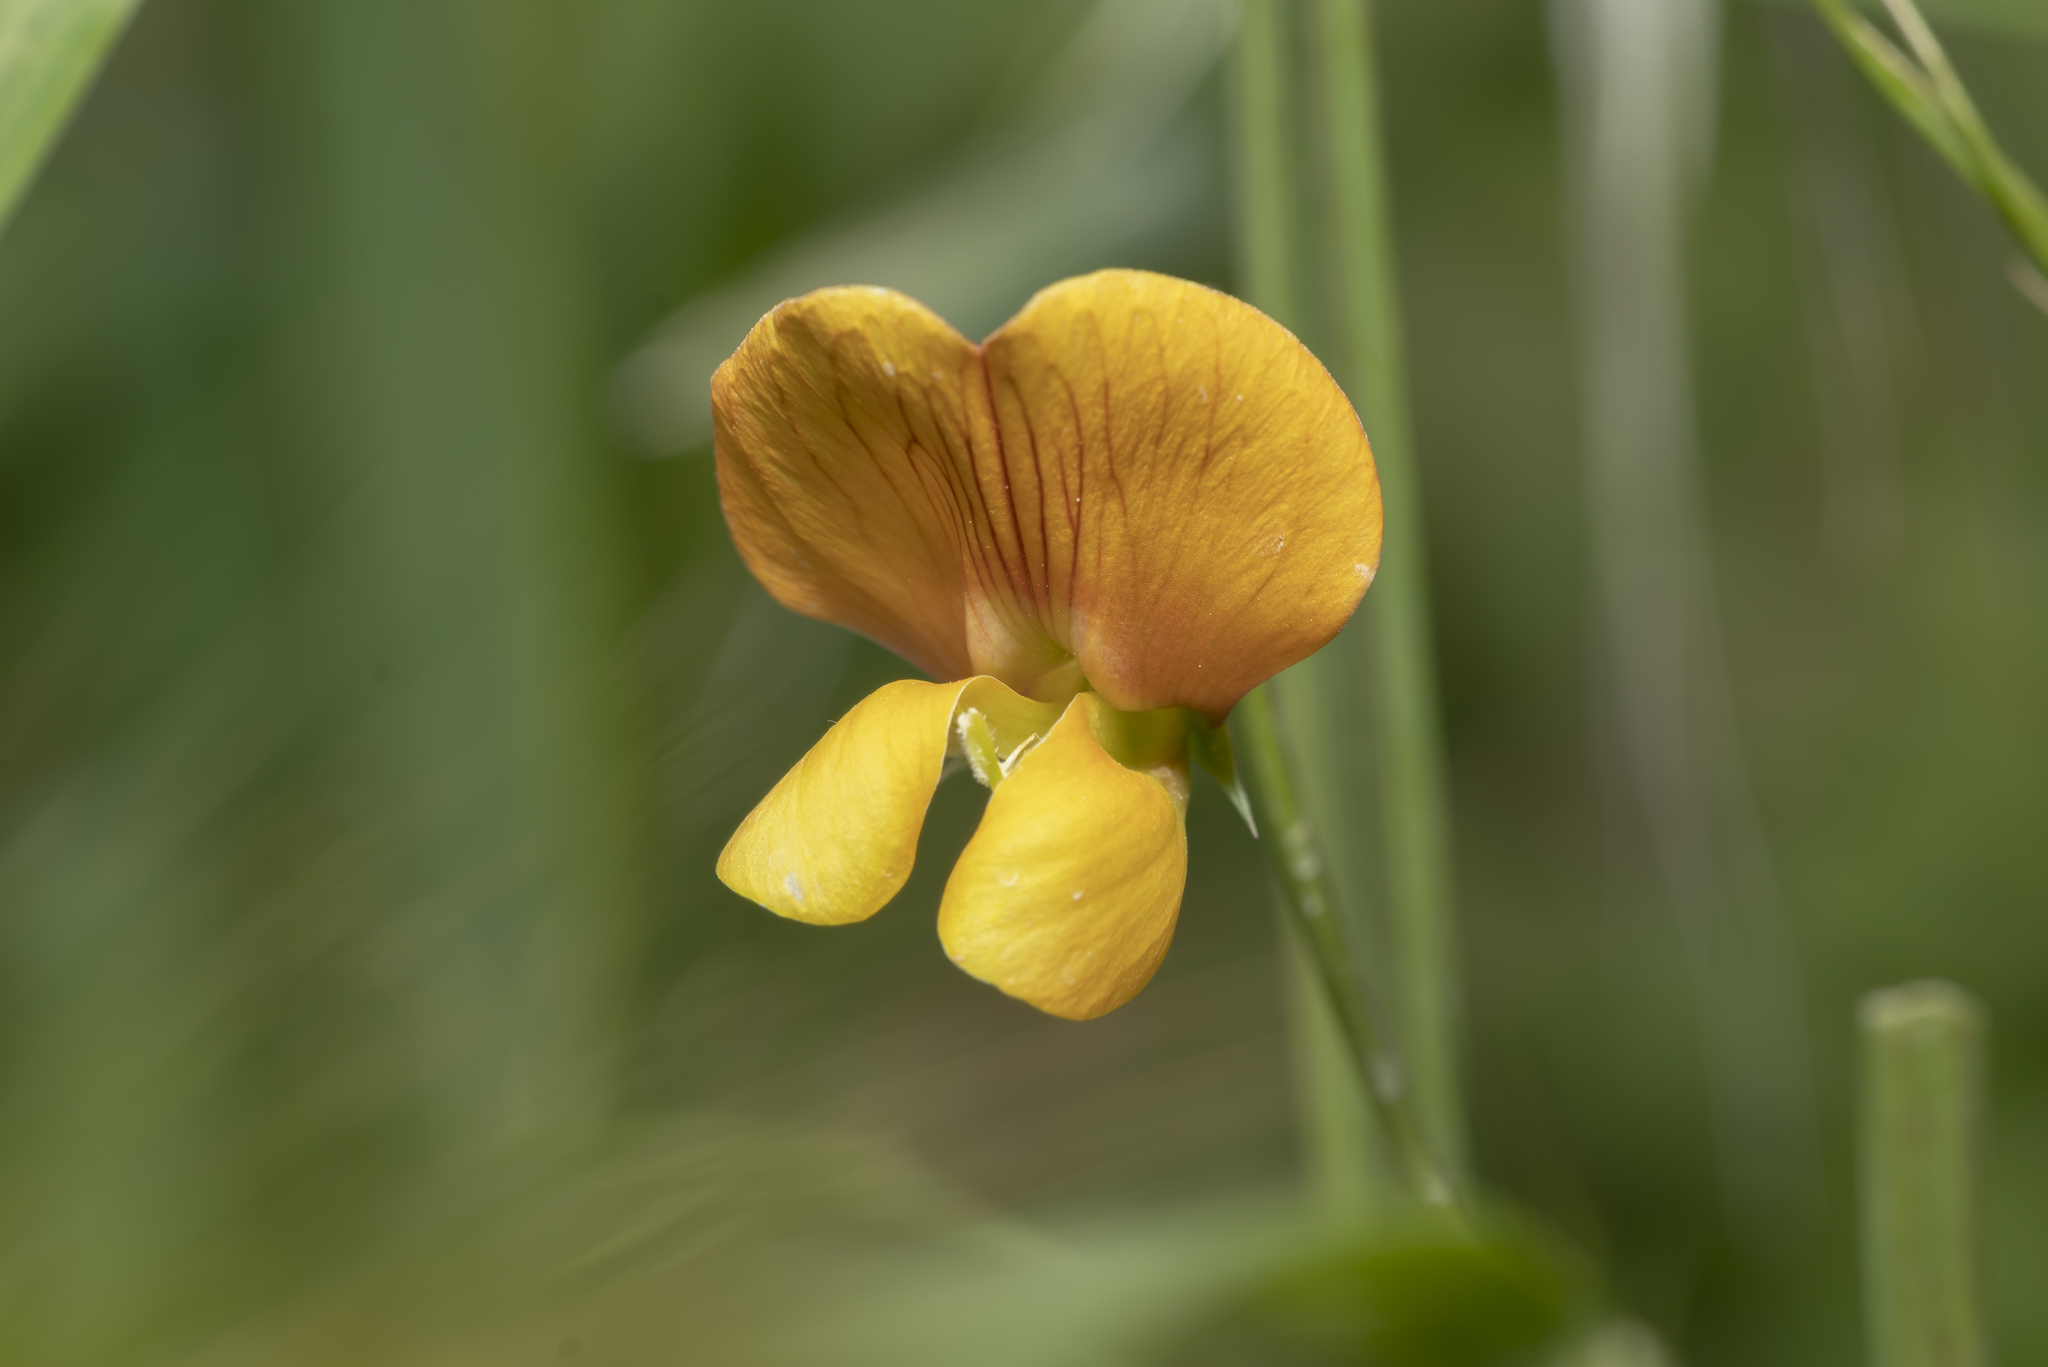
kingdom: Plantae
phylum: Tracheophyta
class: Magnoliopsida
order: Fabales
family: Fabaceae
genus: Lathyrus
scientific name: Lathyrus annuus
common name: Fodder pea
